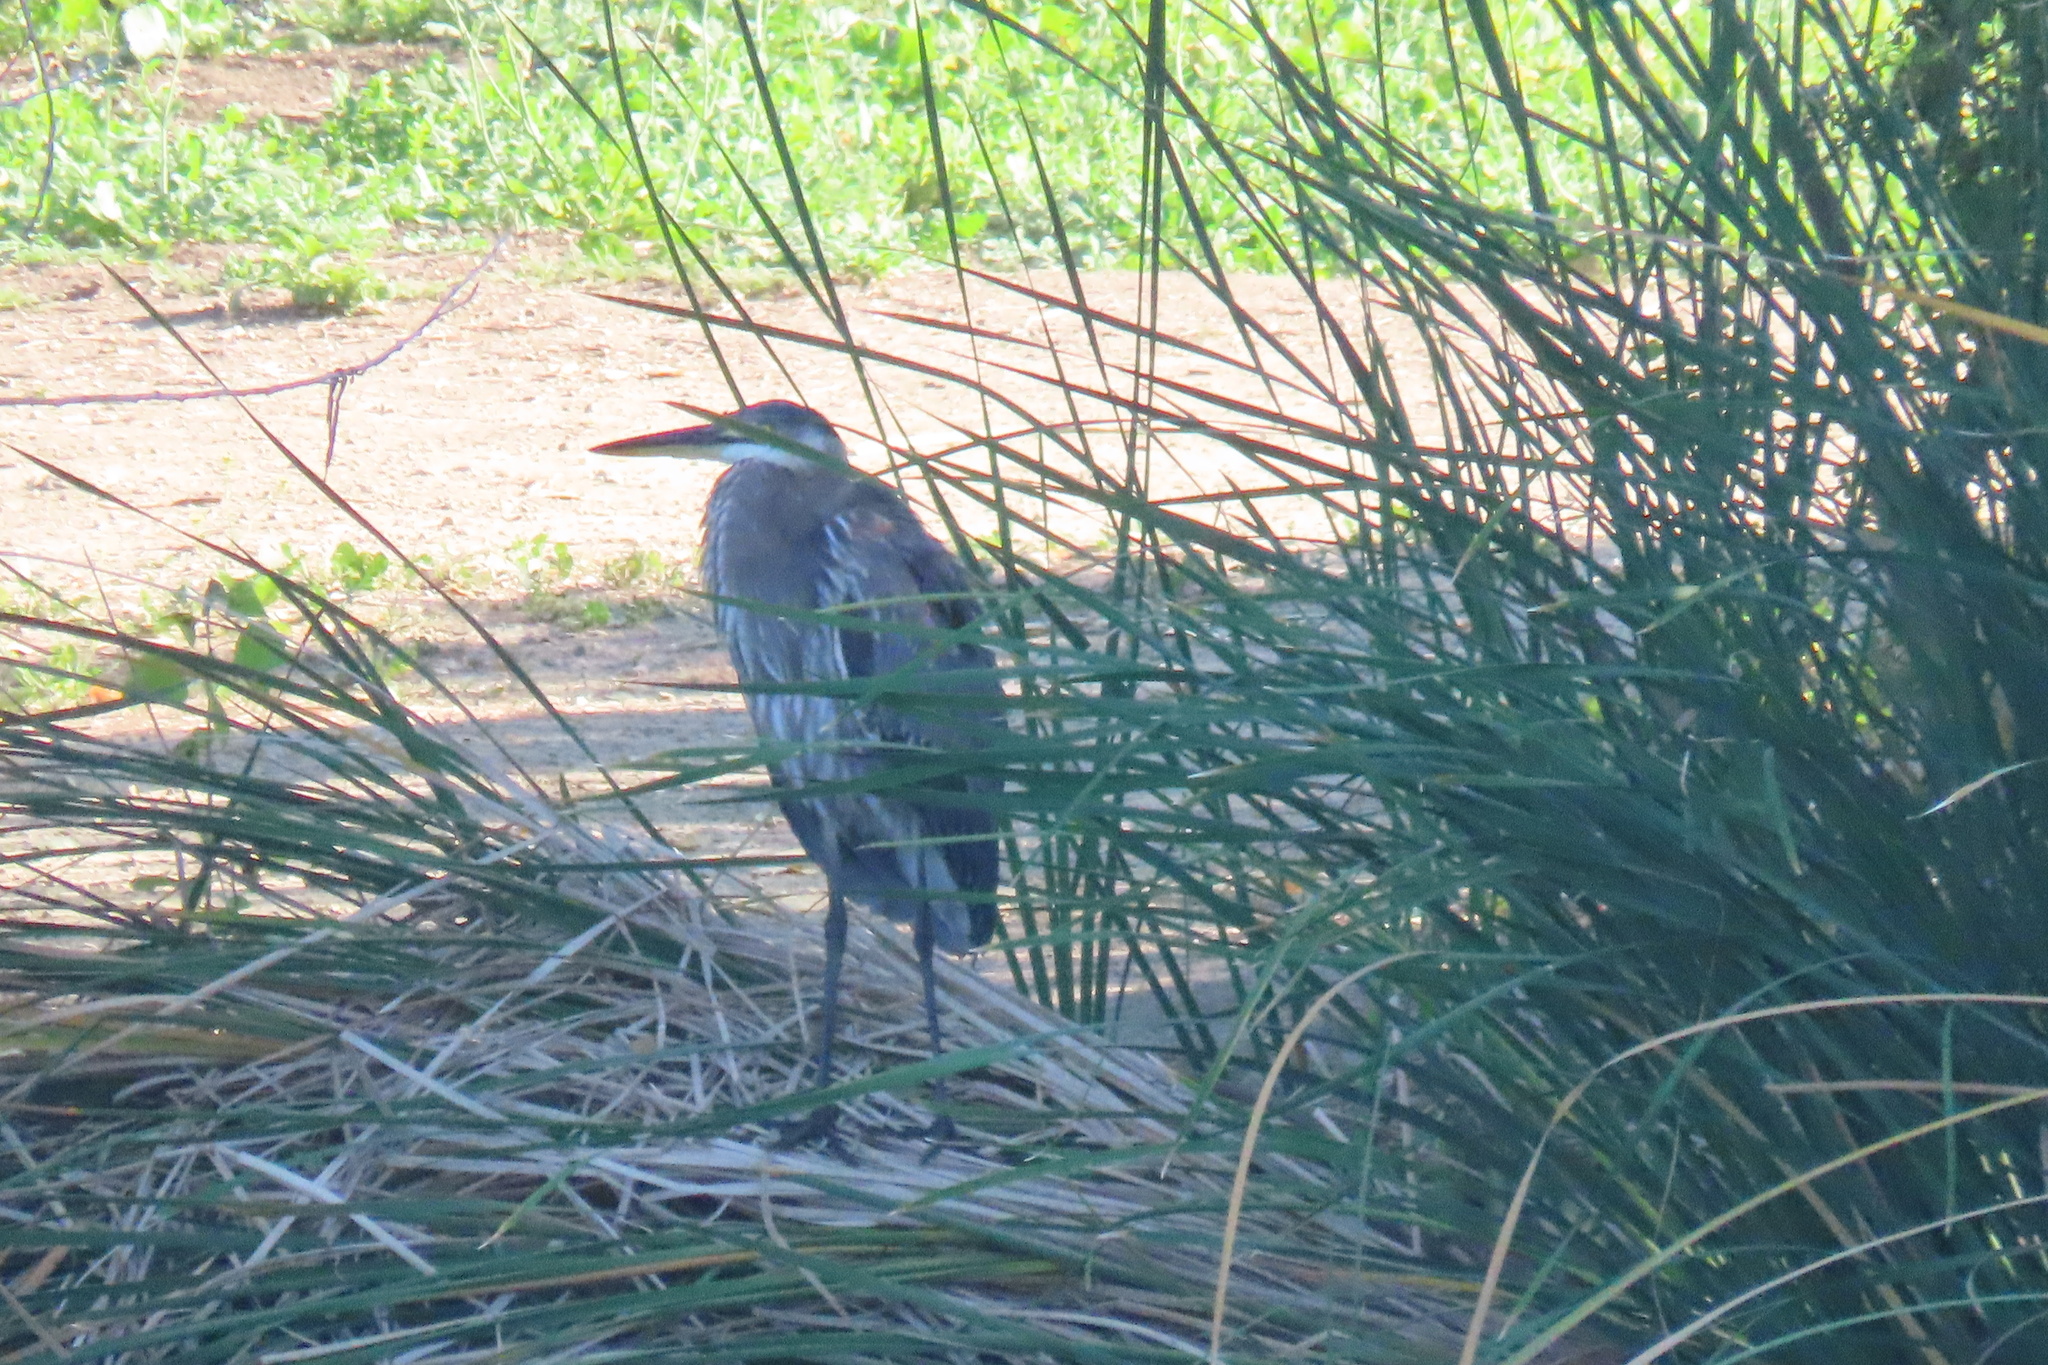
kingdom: Animalia
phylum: Chordata
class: Aves
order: Pelecaniformes
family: Ardeidae
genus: Ardea
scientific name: Ardea herodias
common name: Great blue heron
